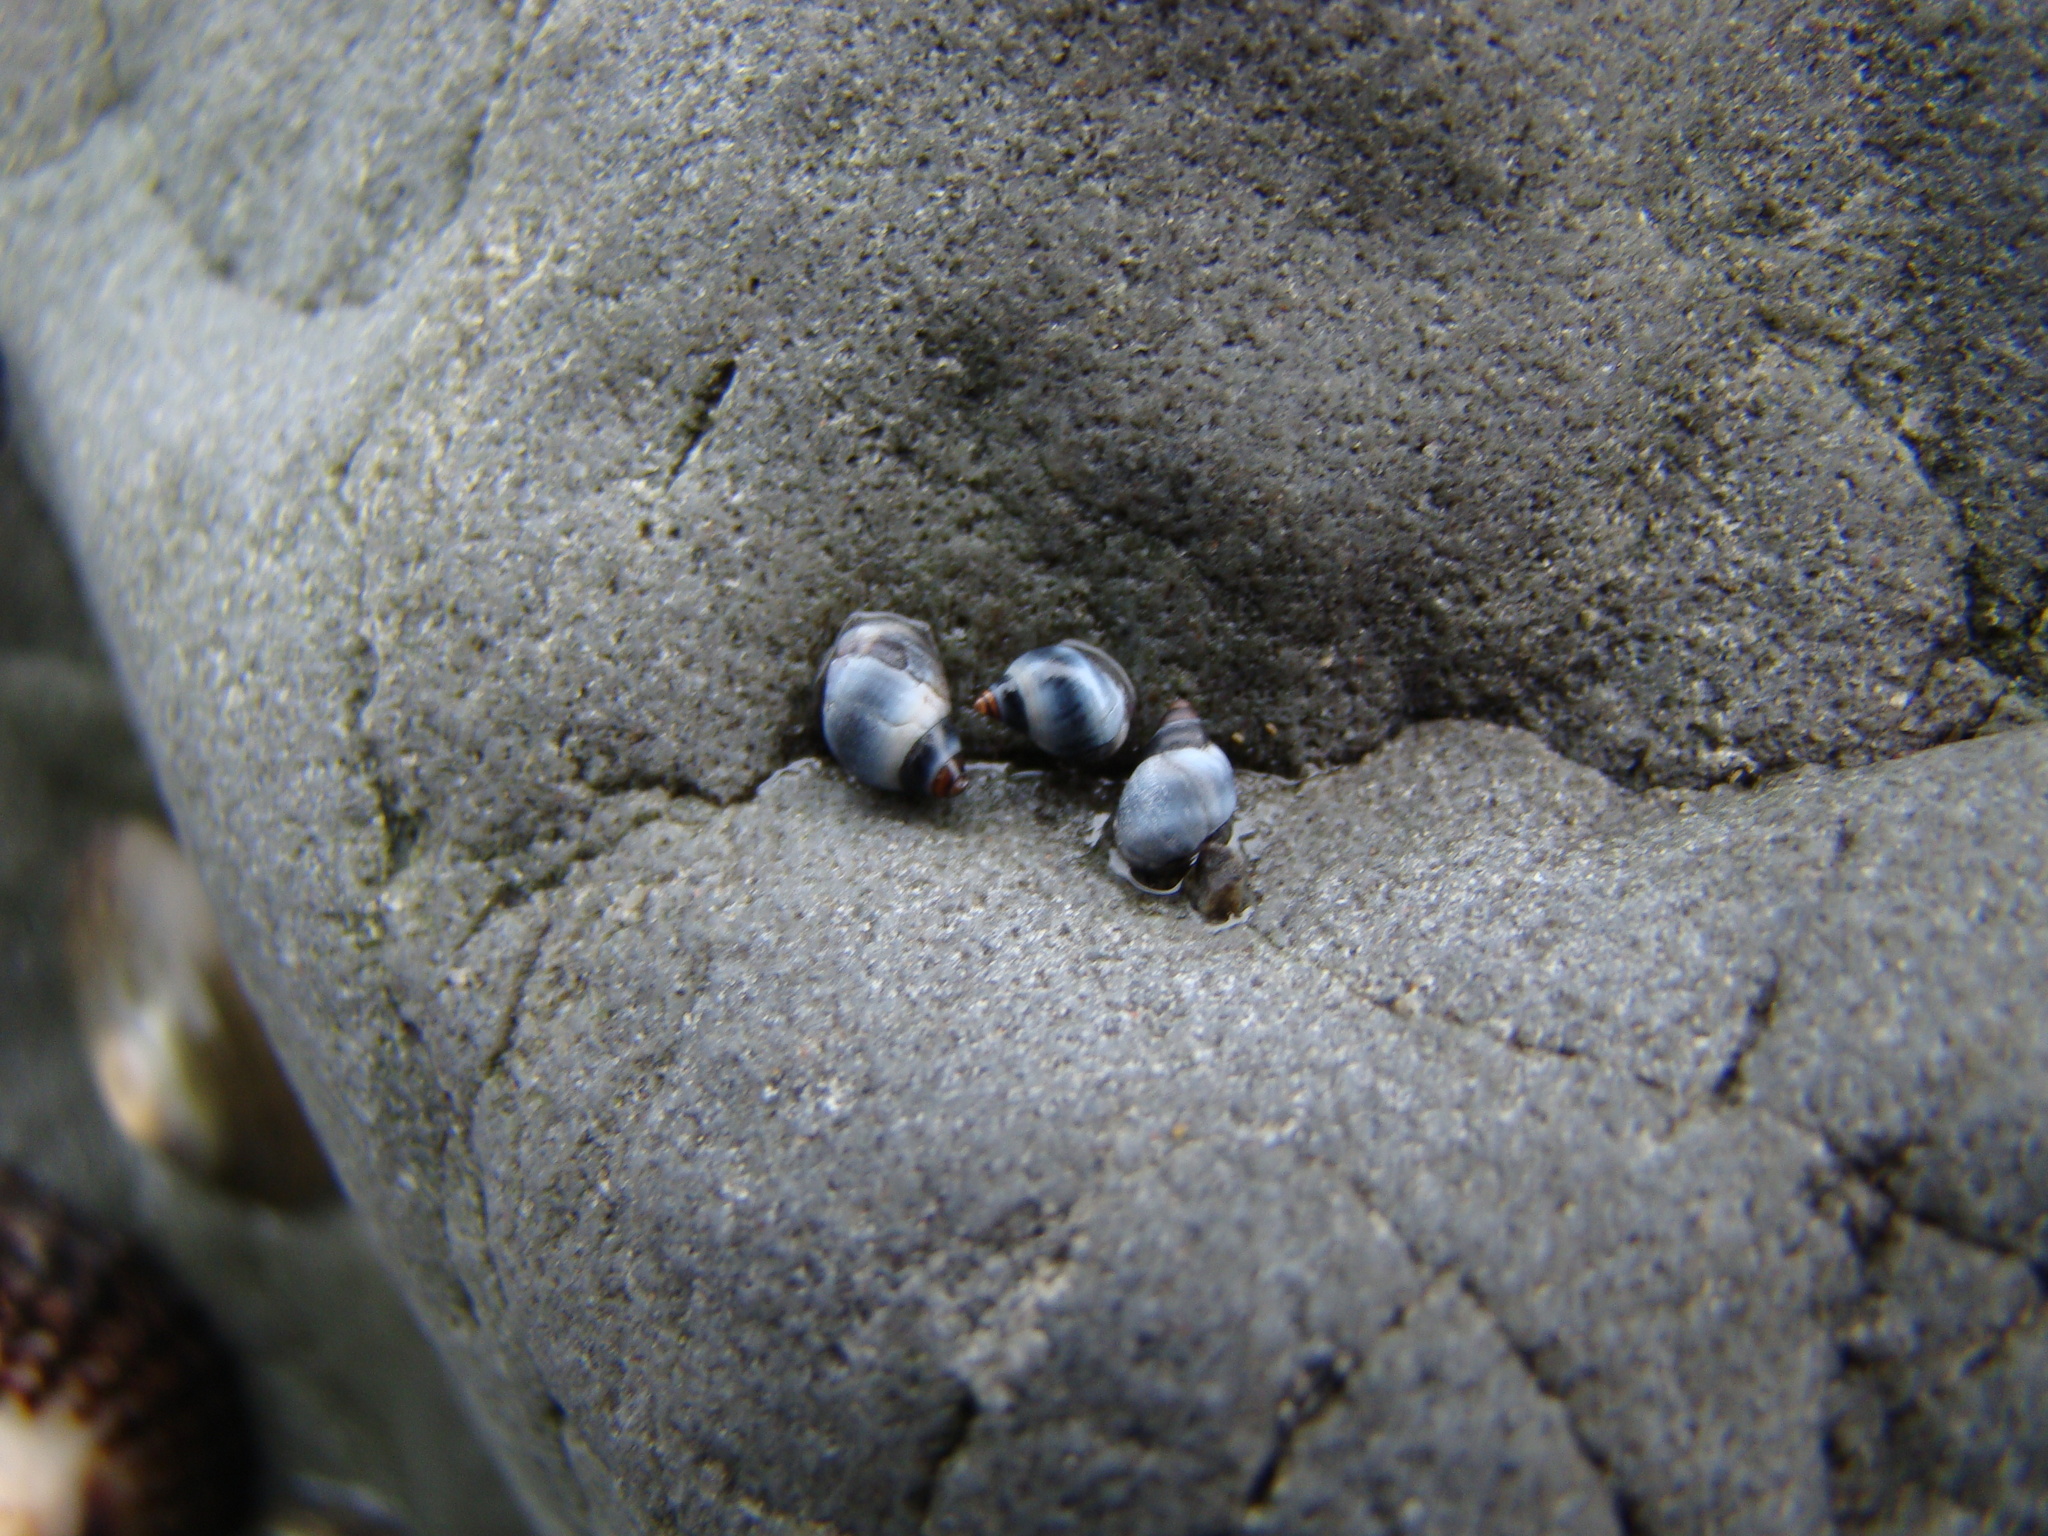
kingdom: Animalia
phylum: Mollusca
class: Gastropoda
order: Littorinimorpha
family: Littorinidae
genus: Austrolittorina
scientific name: Austrolittorina antipodum
